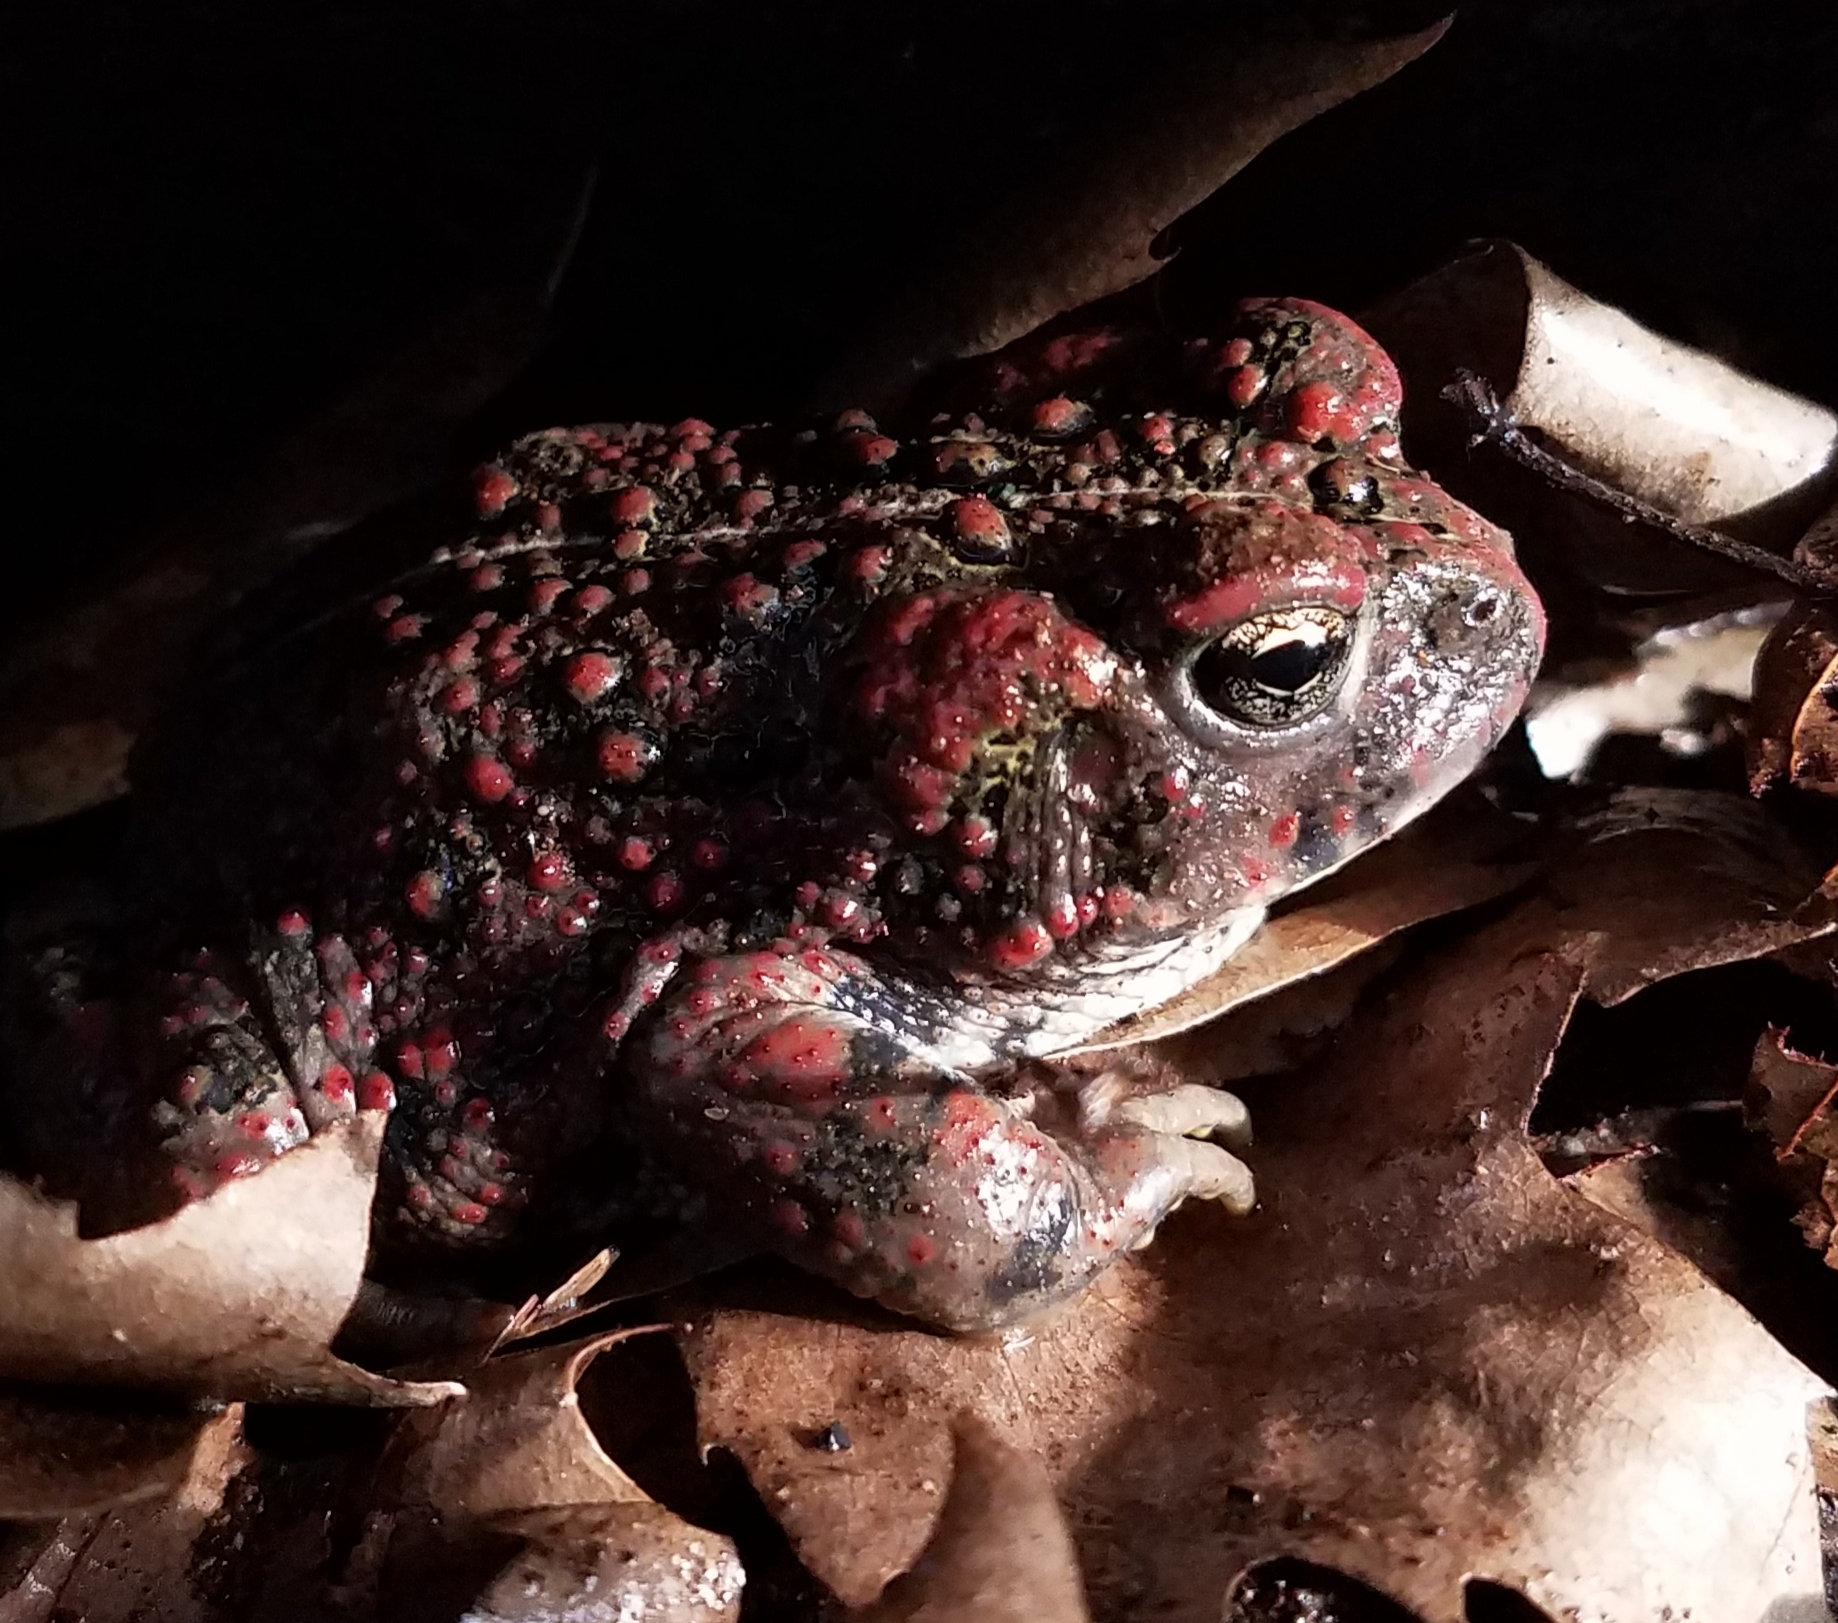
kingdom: Animalia
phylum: Chordata
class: Amphibia
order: Anura
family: Bufonidae
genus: Anaxyrus
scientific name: Anaxyrus boreas
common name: Western toad
